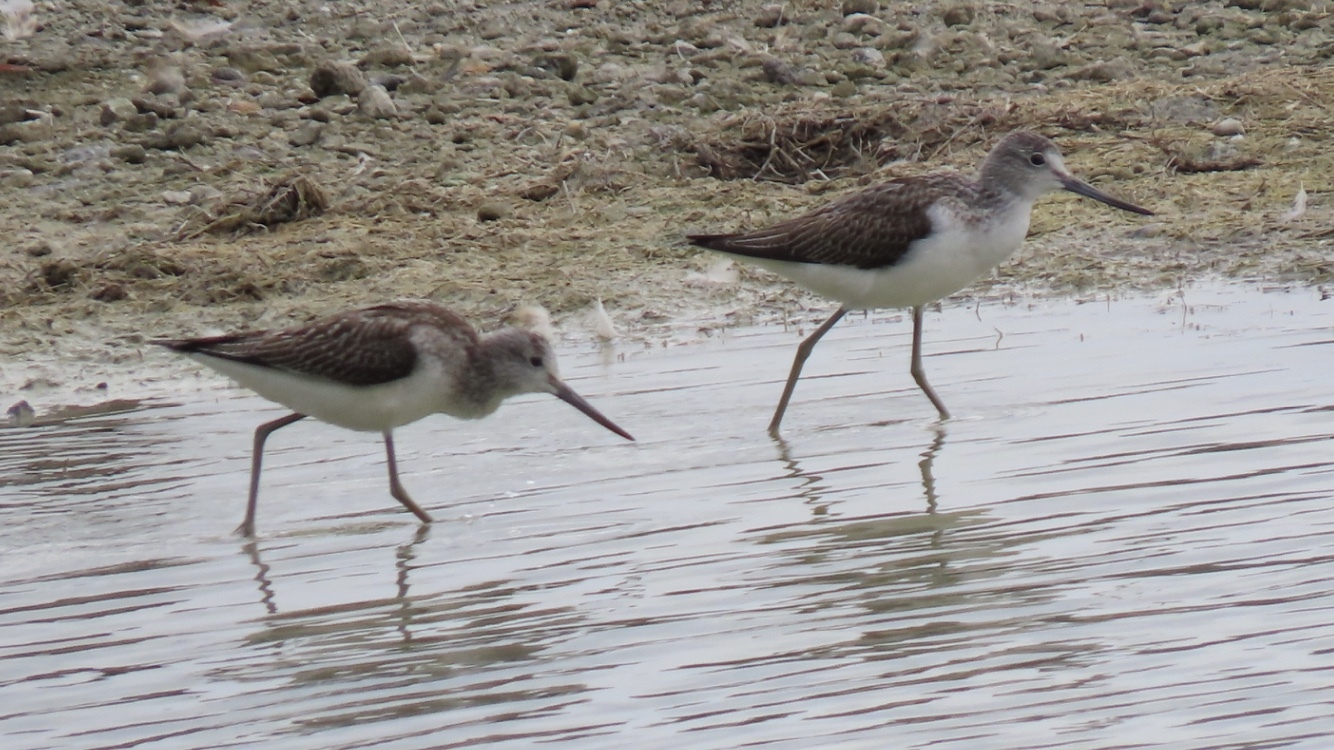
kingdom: Animalia
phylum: Chordata
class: Aves
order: Charadriiformes
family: Scolopacidae
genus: Tringa
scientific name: Tringa nebularia
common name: Common greenshank
